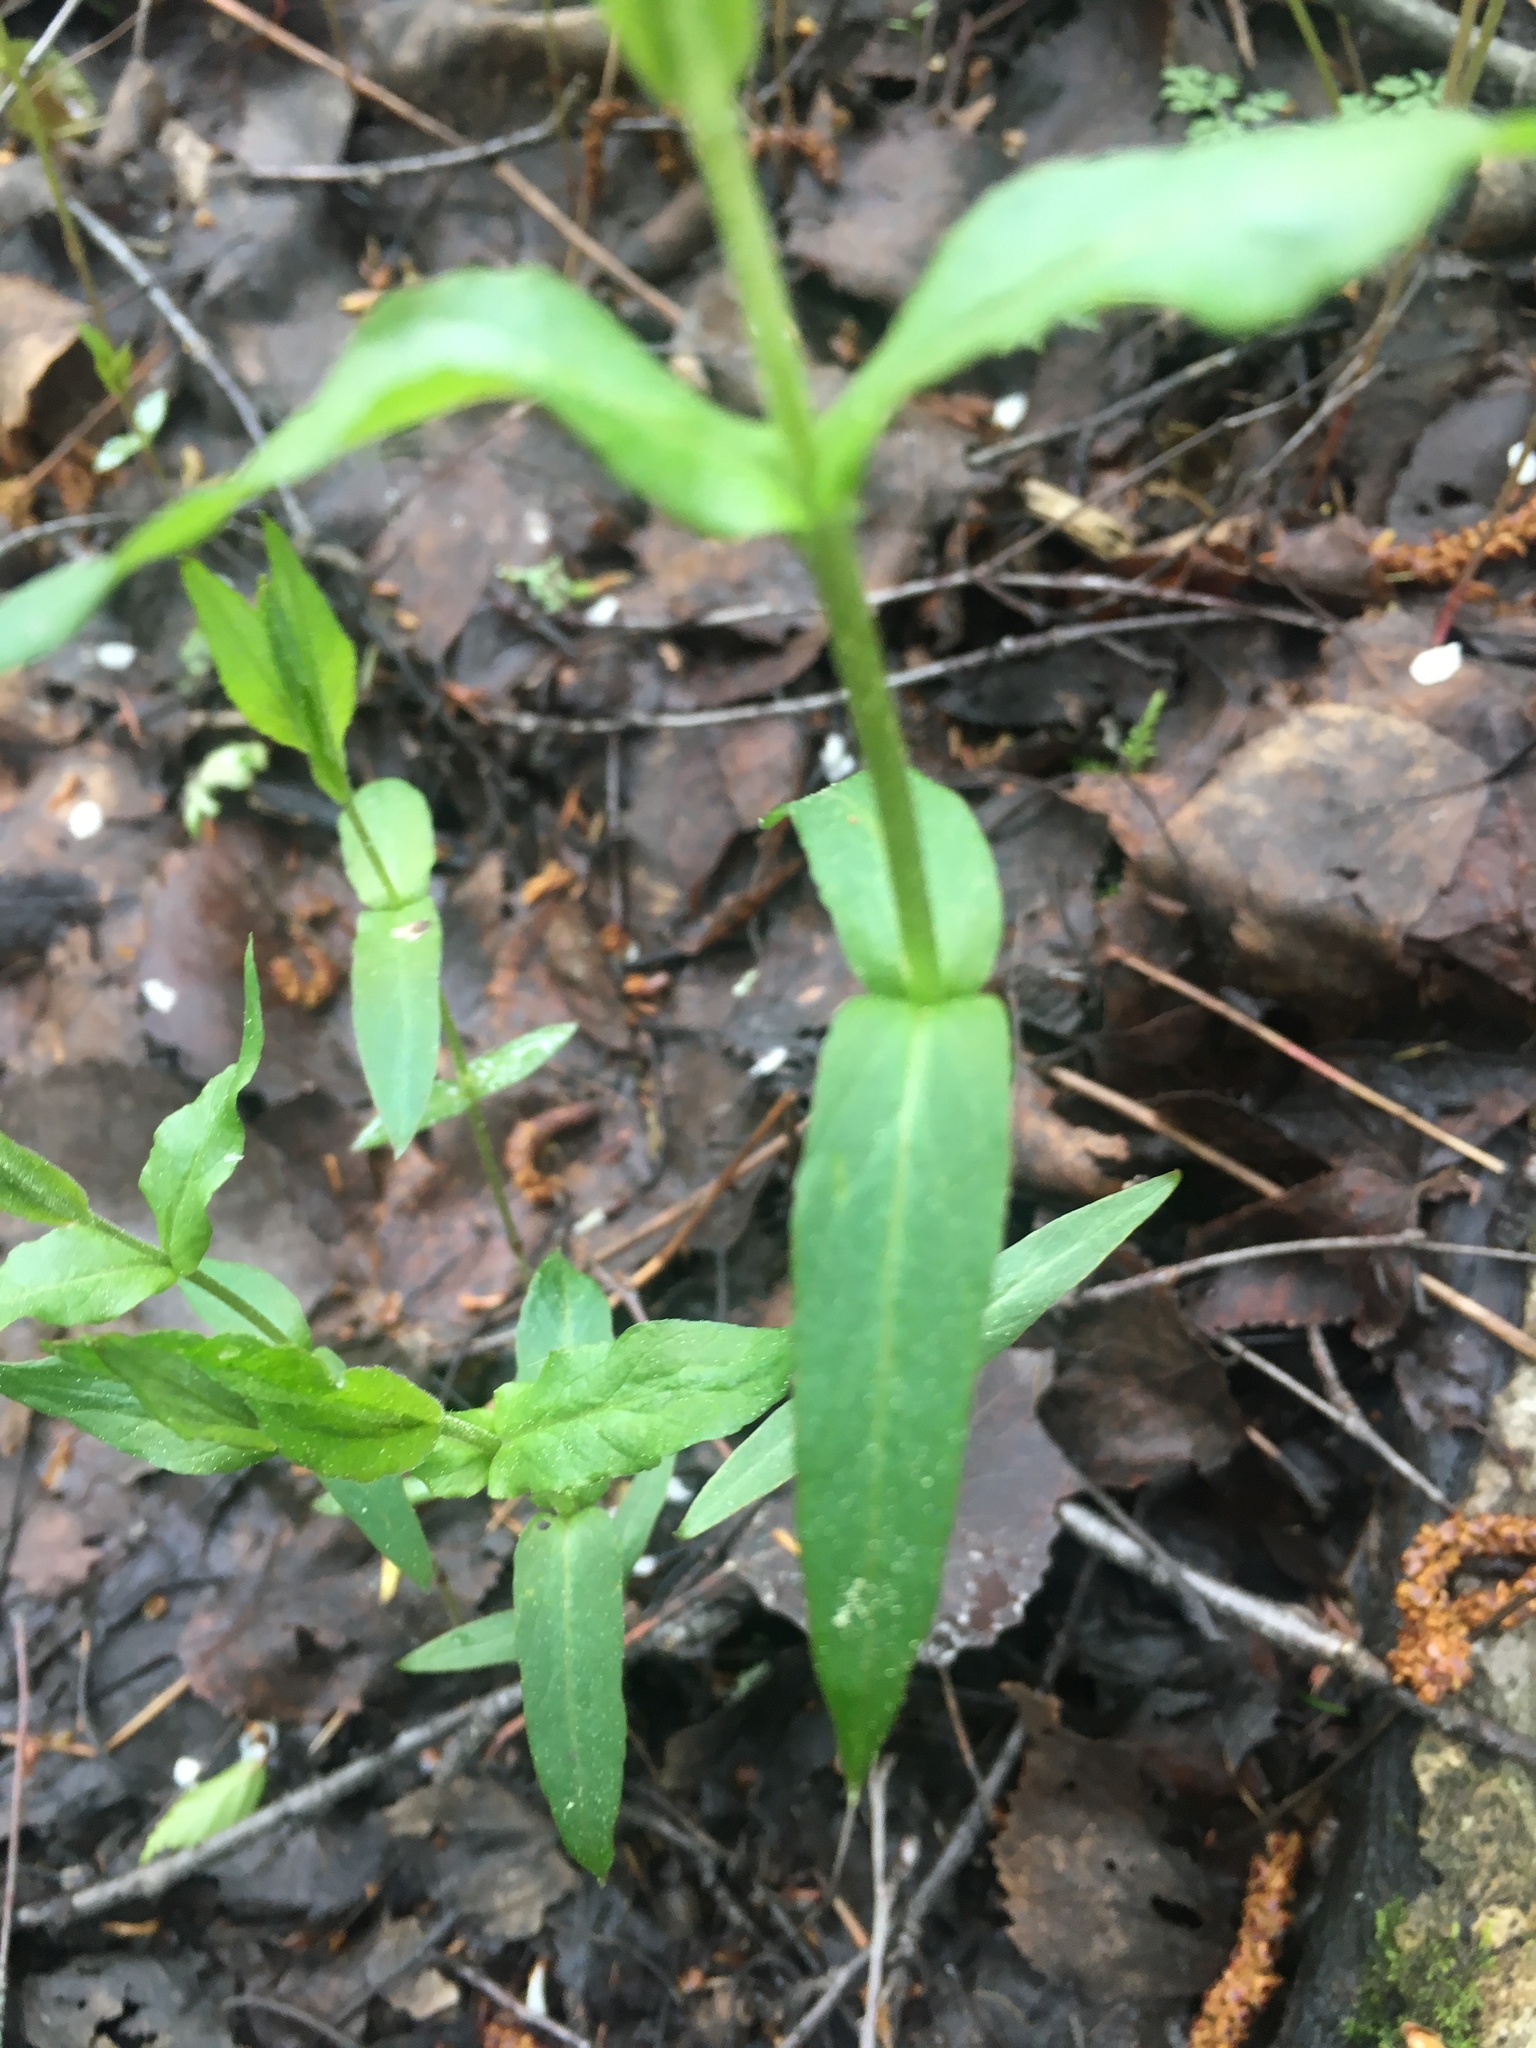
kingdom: Plantae
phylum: Tracheophyta
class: Magnoliopsida
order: Caryophyllales
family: Caryophyllaceae
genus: Rabelera
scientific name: Rabelera holostea
